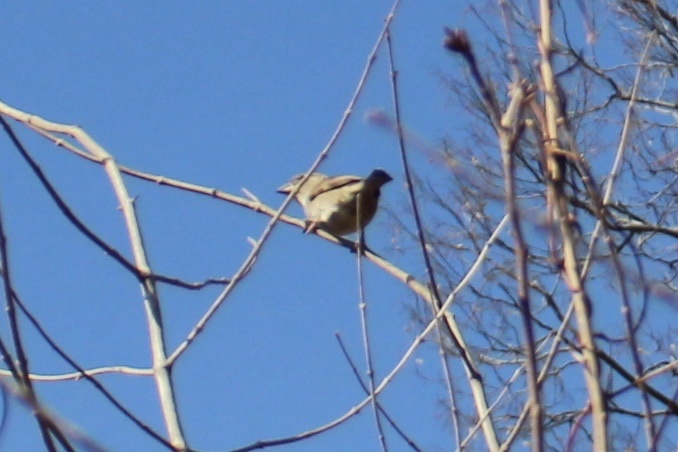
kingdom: Animalia
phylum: Chordata
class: Aves
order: Passeriformes
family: Passeridae
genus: Passer
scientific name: Passer domesticus
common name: House sparrow
